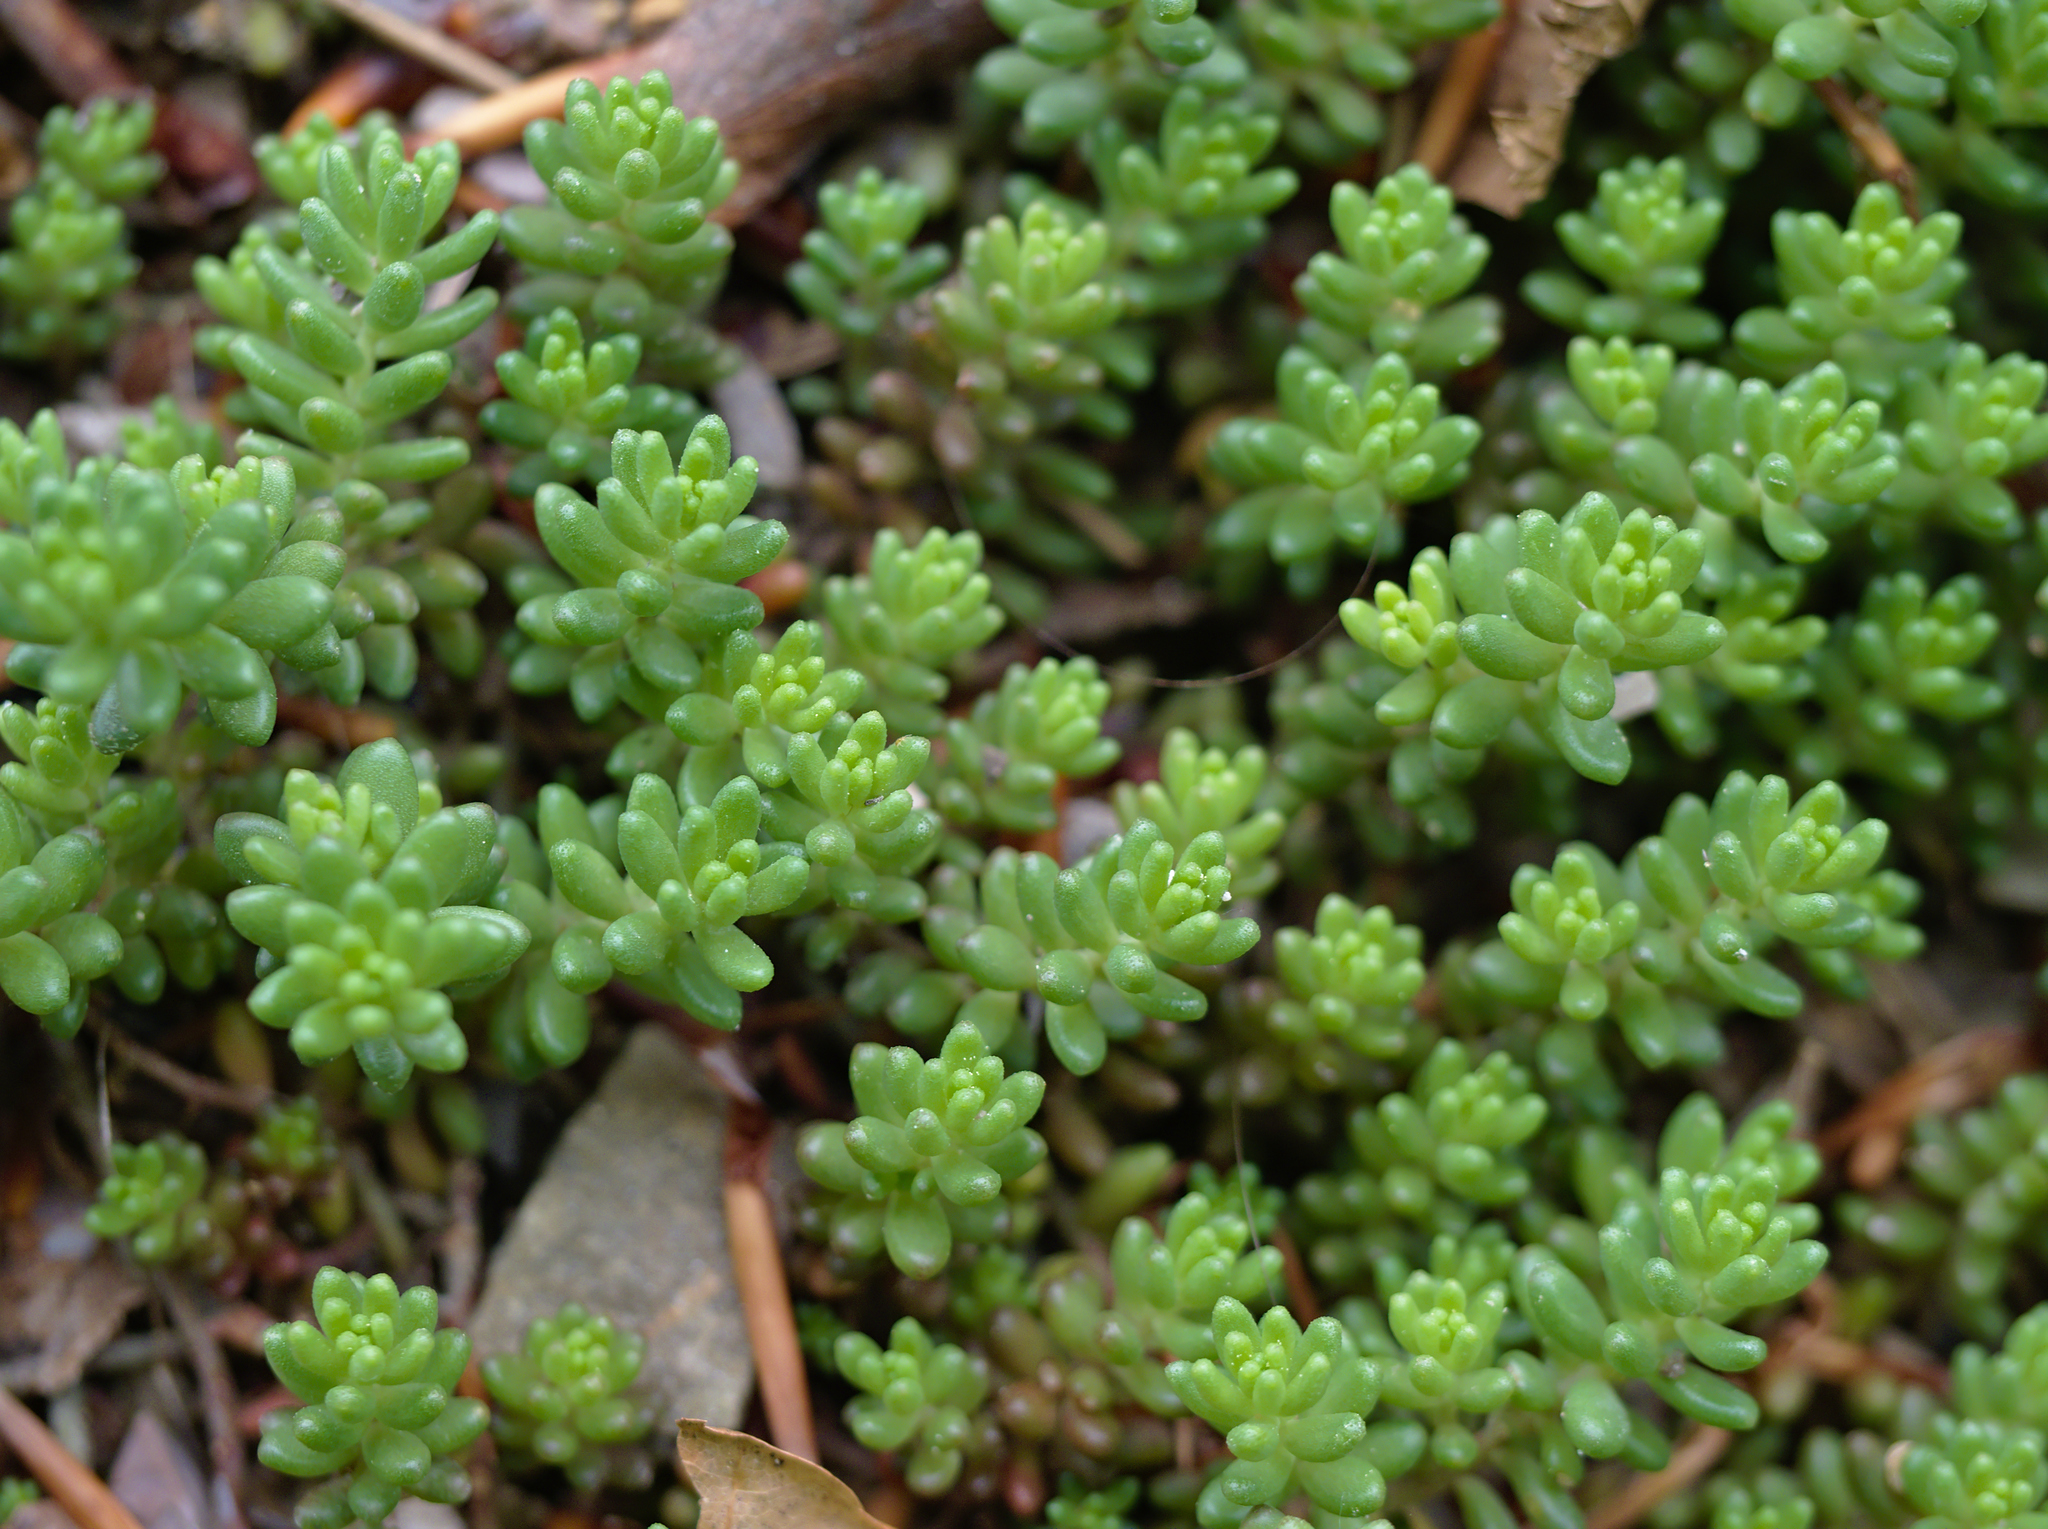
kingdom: Plantae
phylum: Tracheophyta
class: Magnoliopsida
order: Saxifragales
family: Crassulaceae
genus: Sedum
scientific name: Sedum album
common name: White stonecrop
